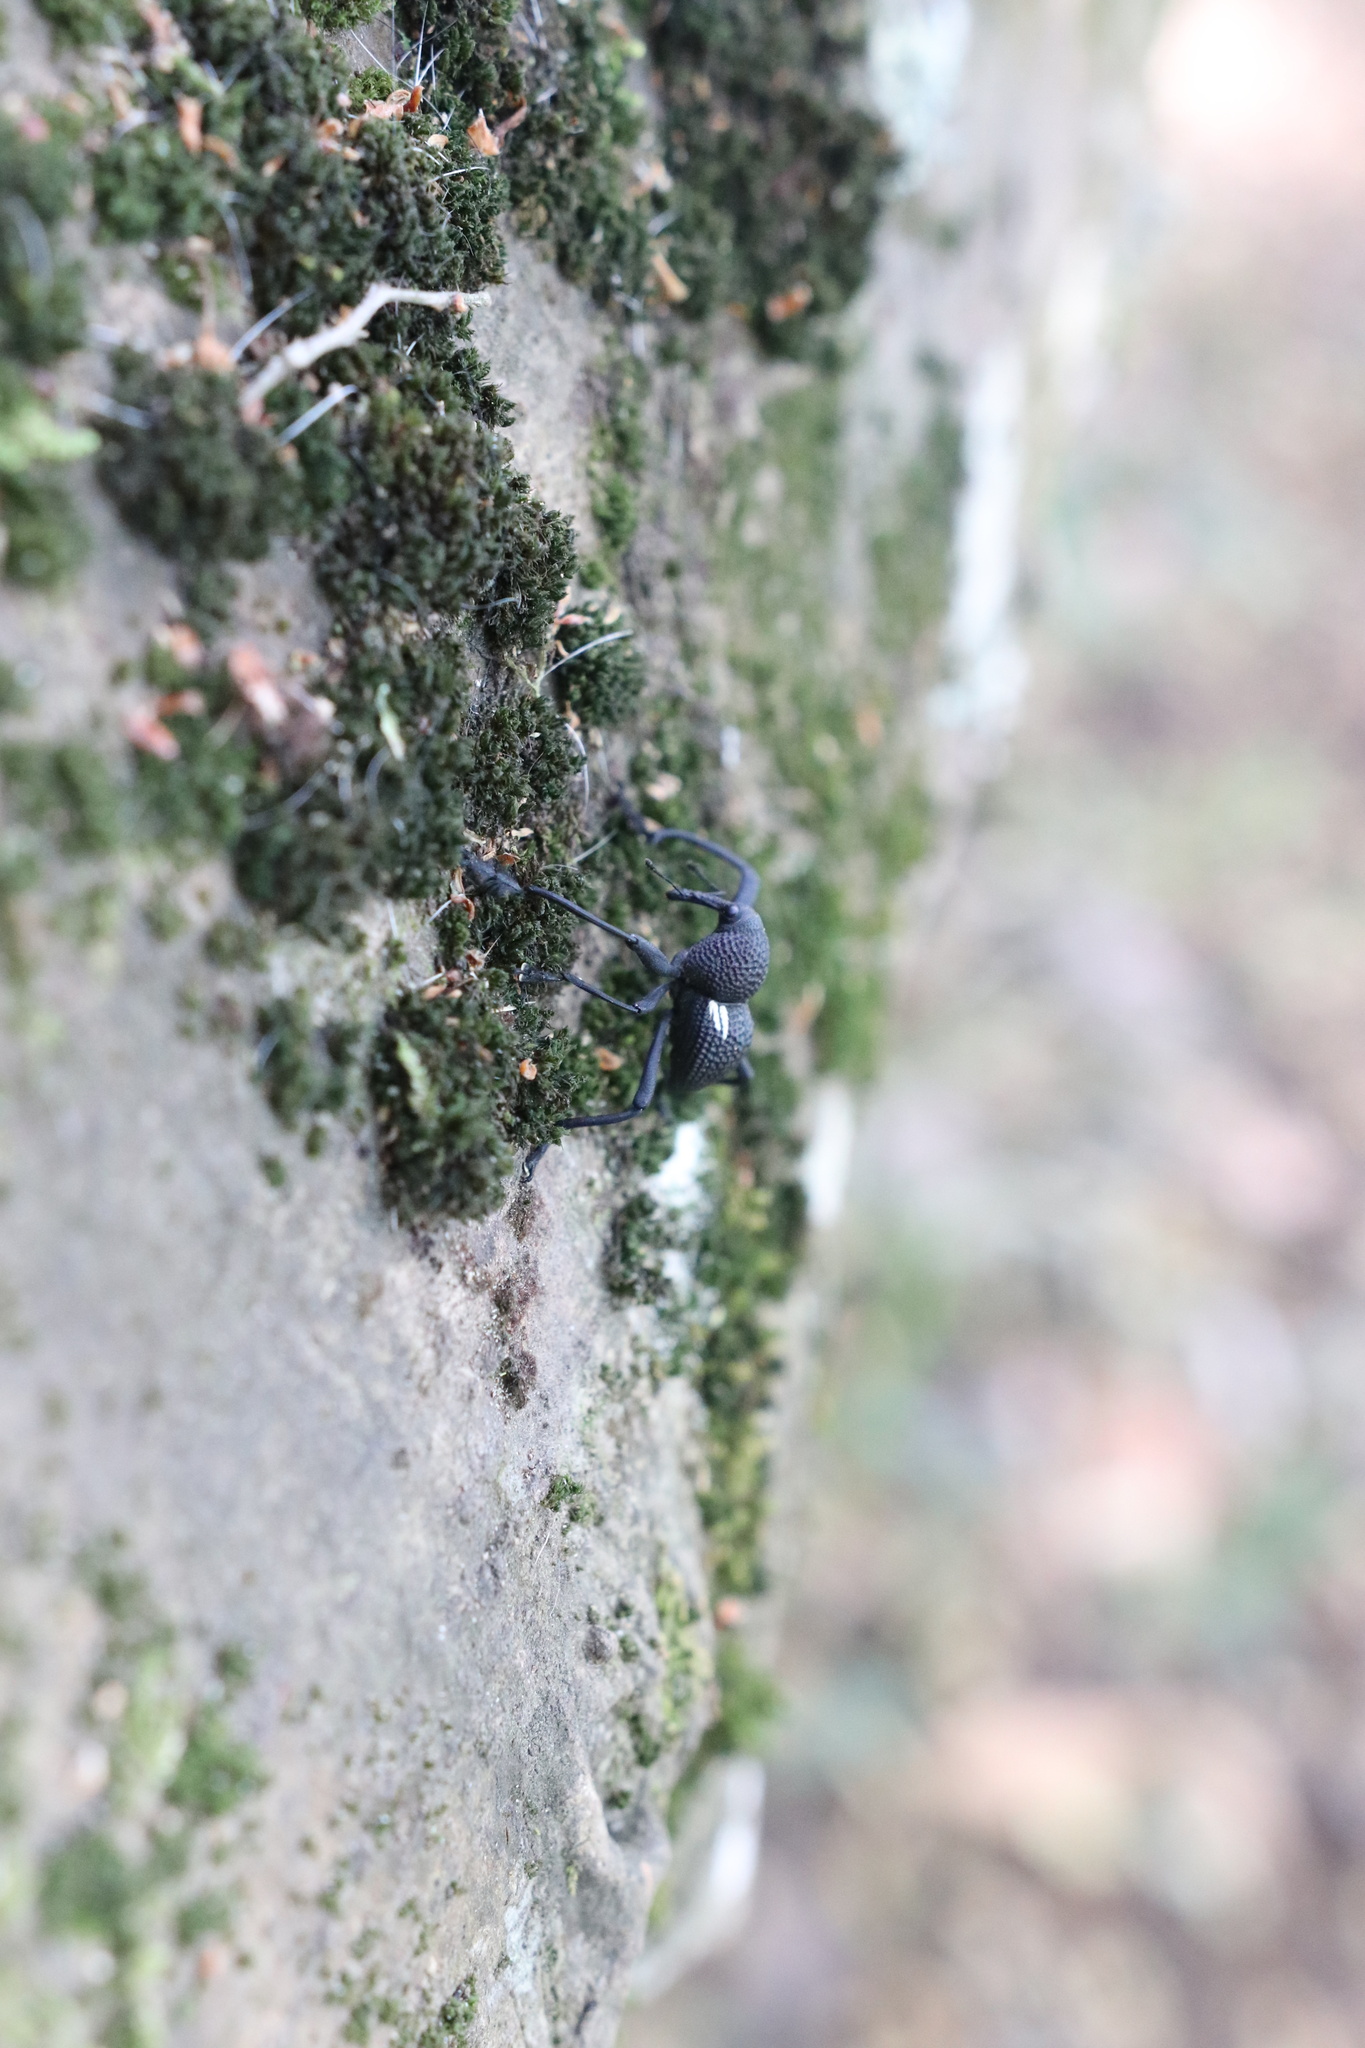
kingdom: Animalia
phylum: Arthropoda
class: Insecta
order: Coleoptera
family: Curculionidae
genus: Rhyephenes
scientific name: Rhyephenes humeralis
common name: Araè±ita chilena del pino
